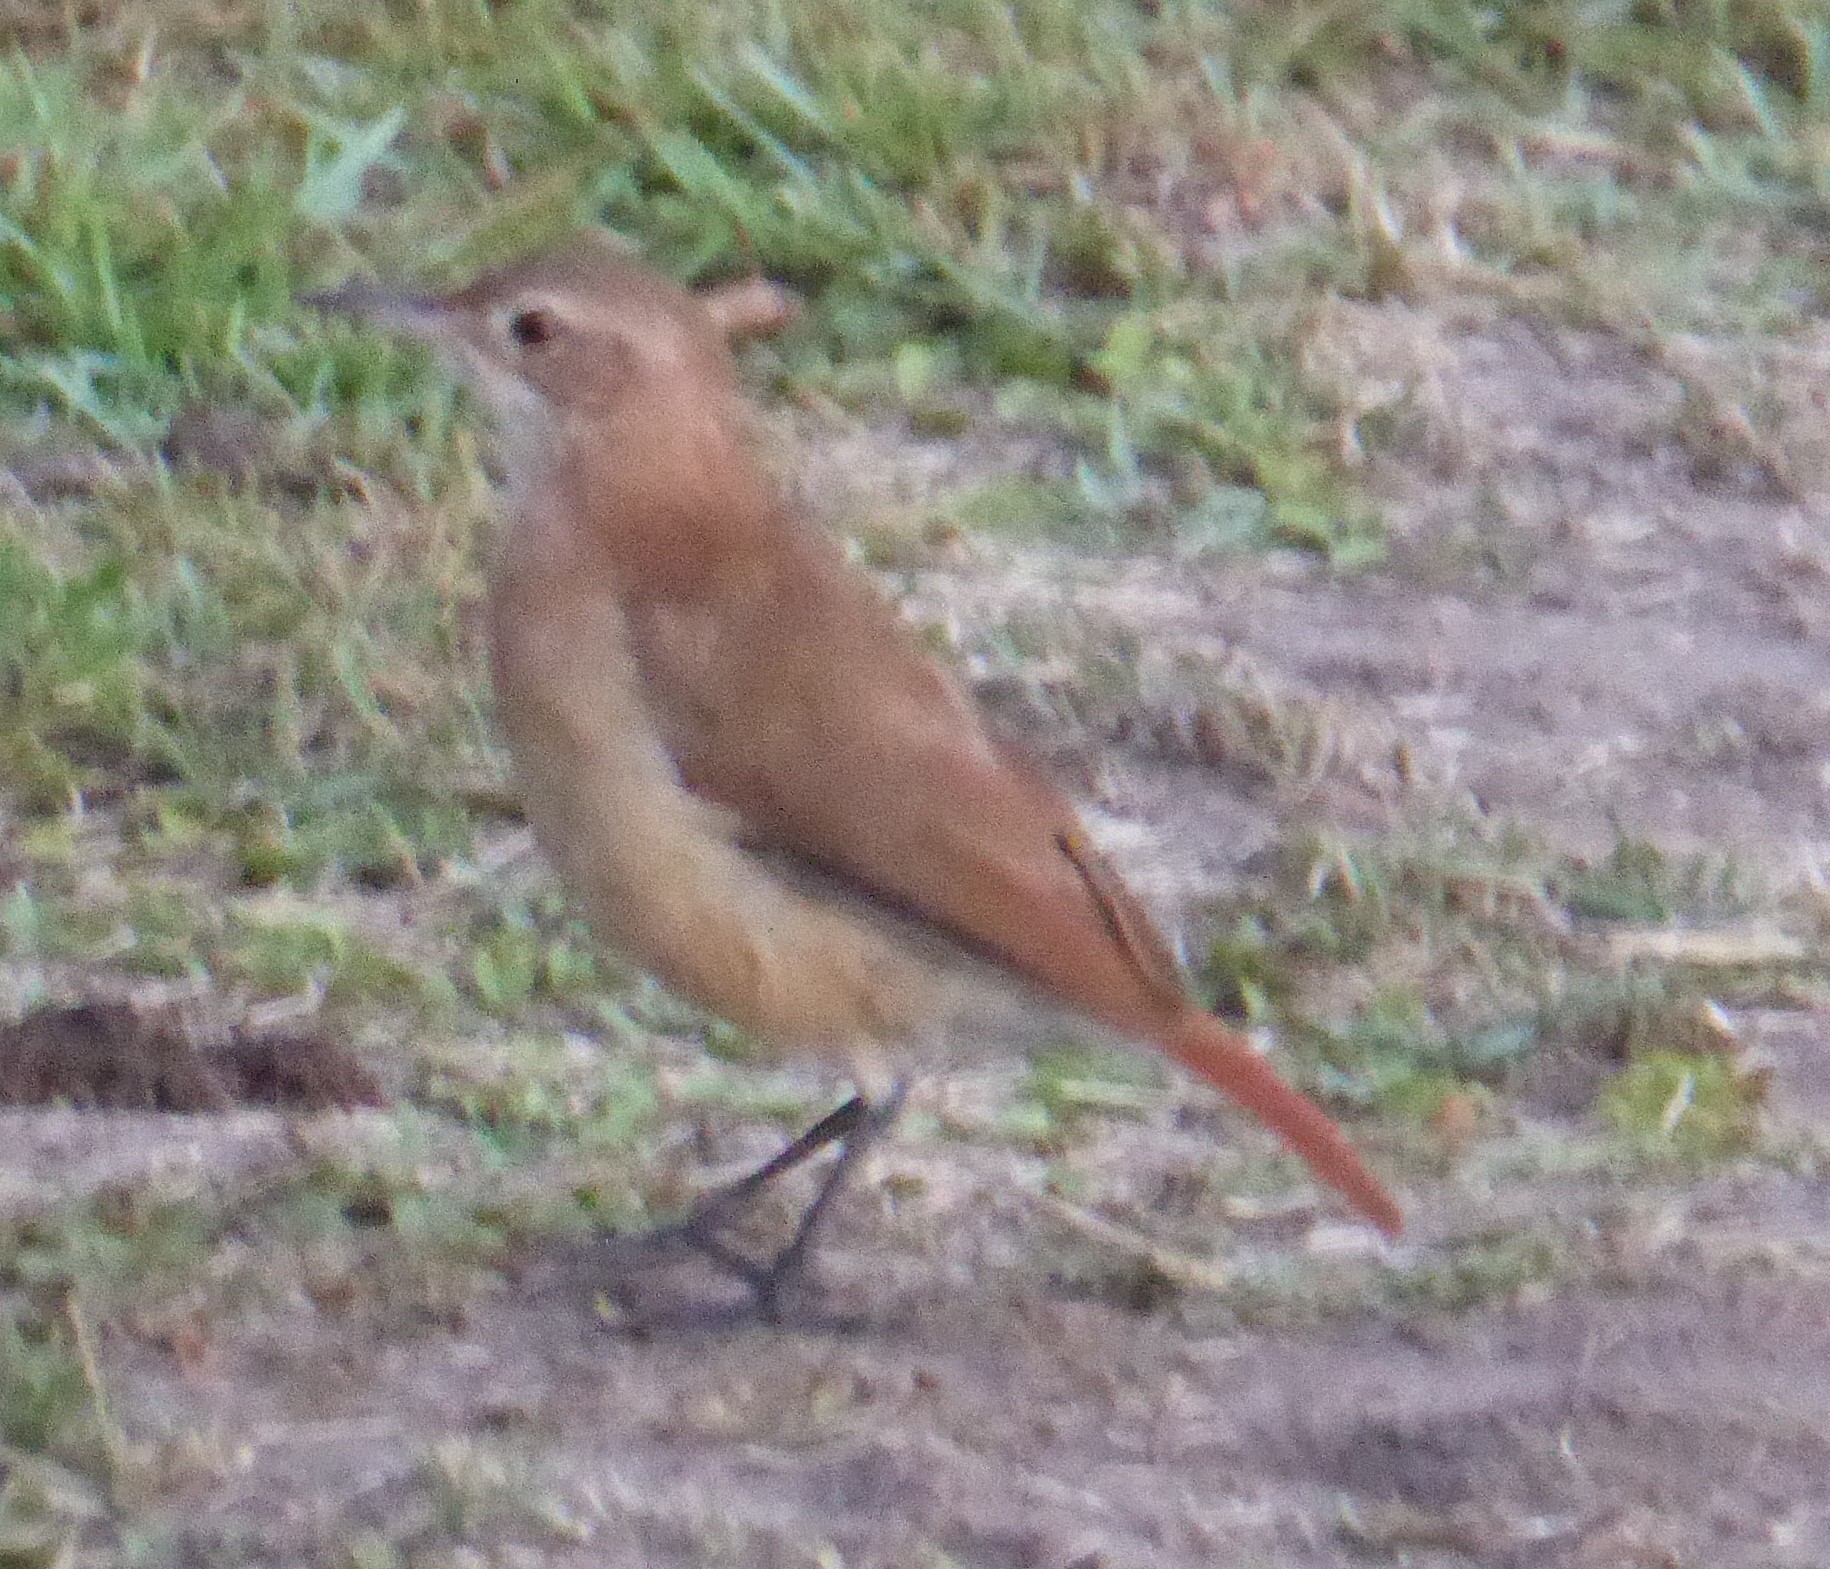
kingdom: Animalia
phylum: Chordata
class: Aves
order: Passeriformes
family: Furnariidae
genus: Furnarius
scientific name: Furnarius rufus
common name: Rufous hornero
